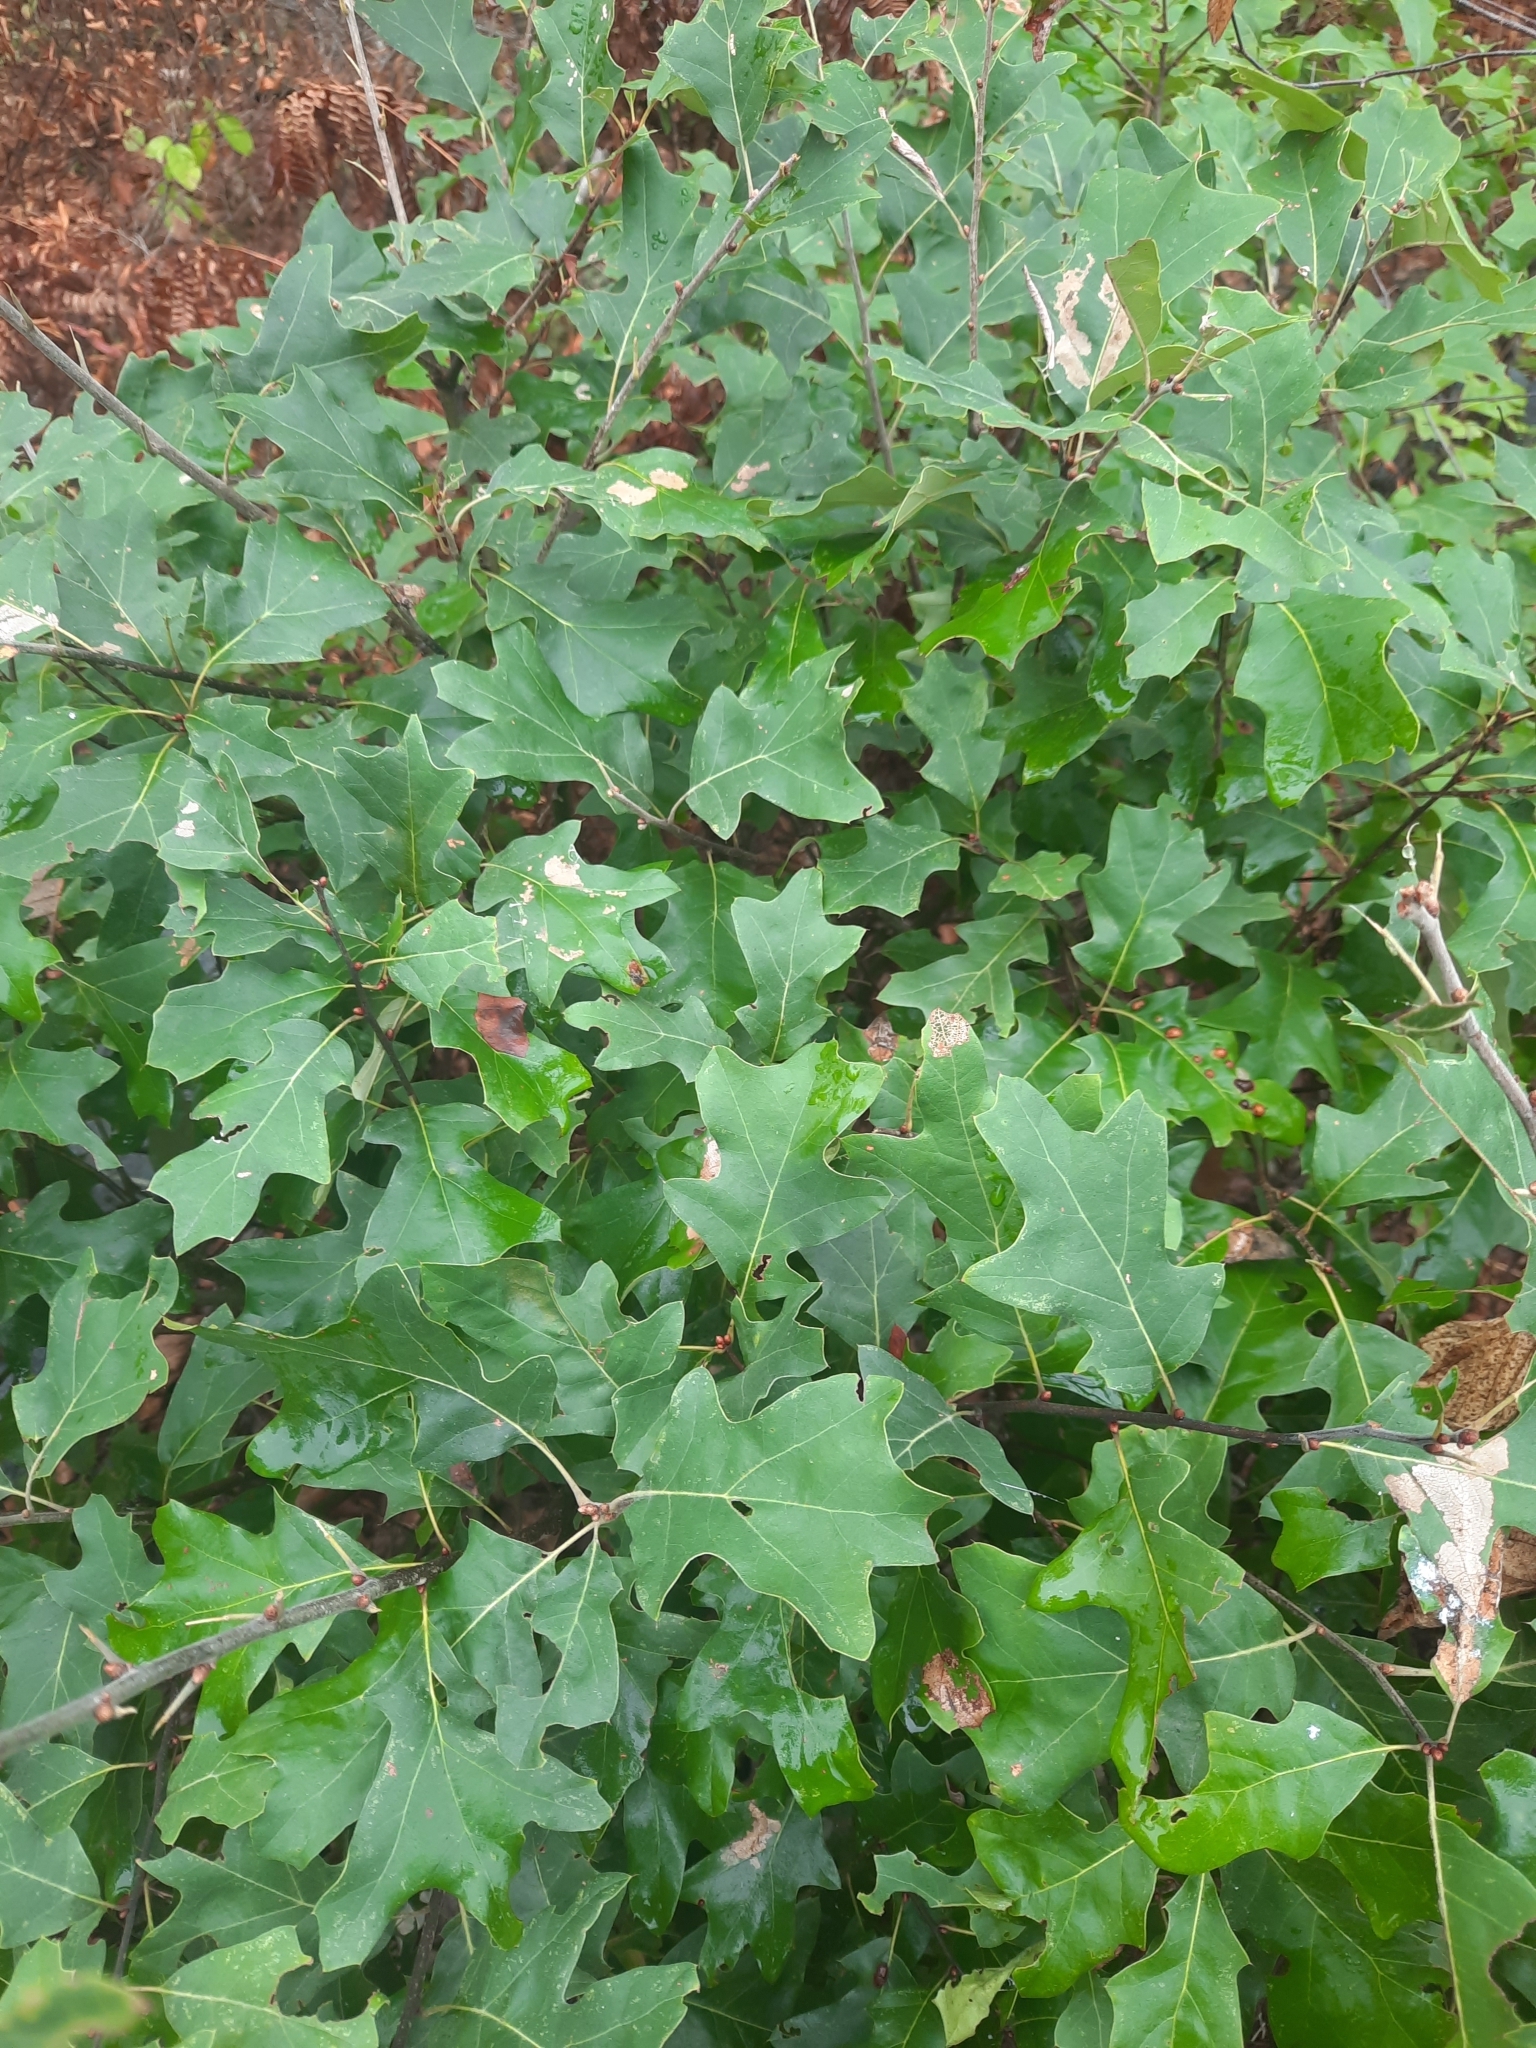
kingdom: Plantae
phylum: Tracheophyta
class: Magnoliopsida
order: Fagales
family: Fagaceae
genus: Quercus
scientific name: Quercus ilicifolia
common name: Bear oak
